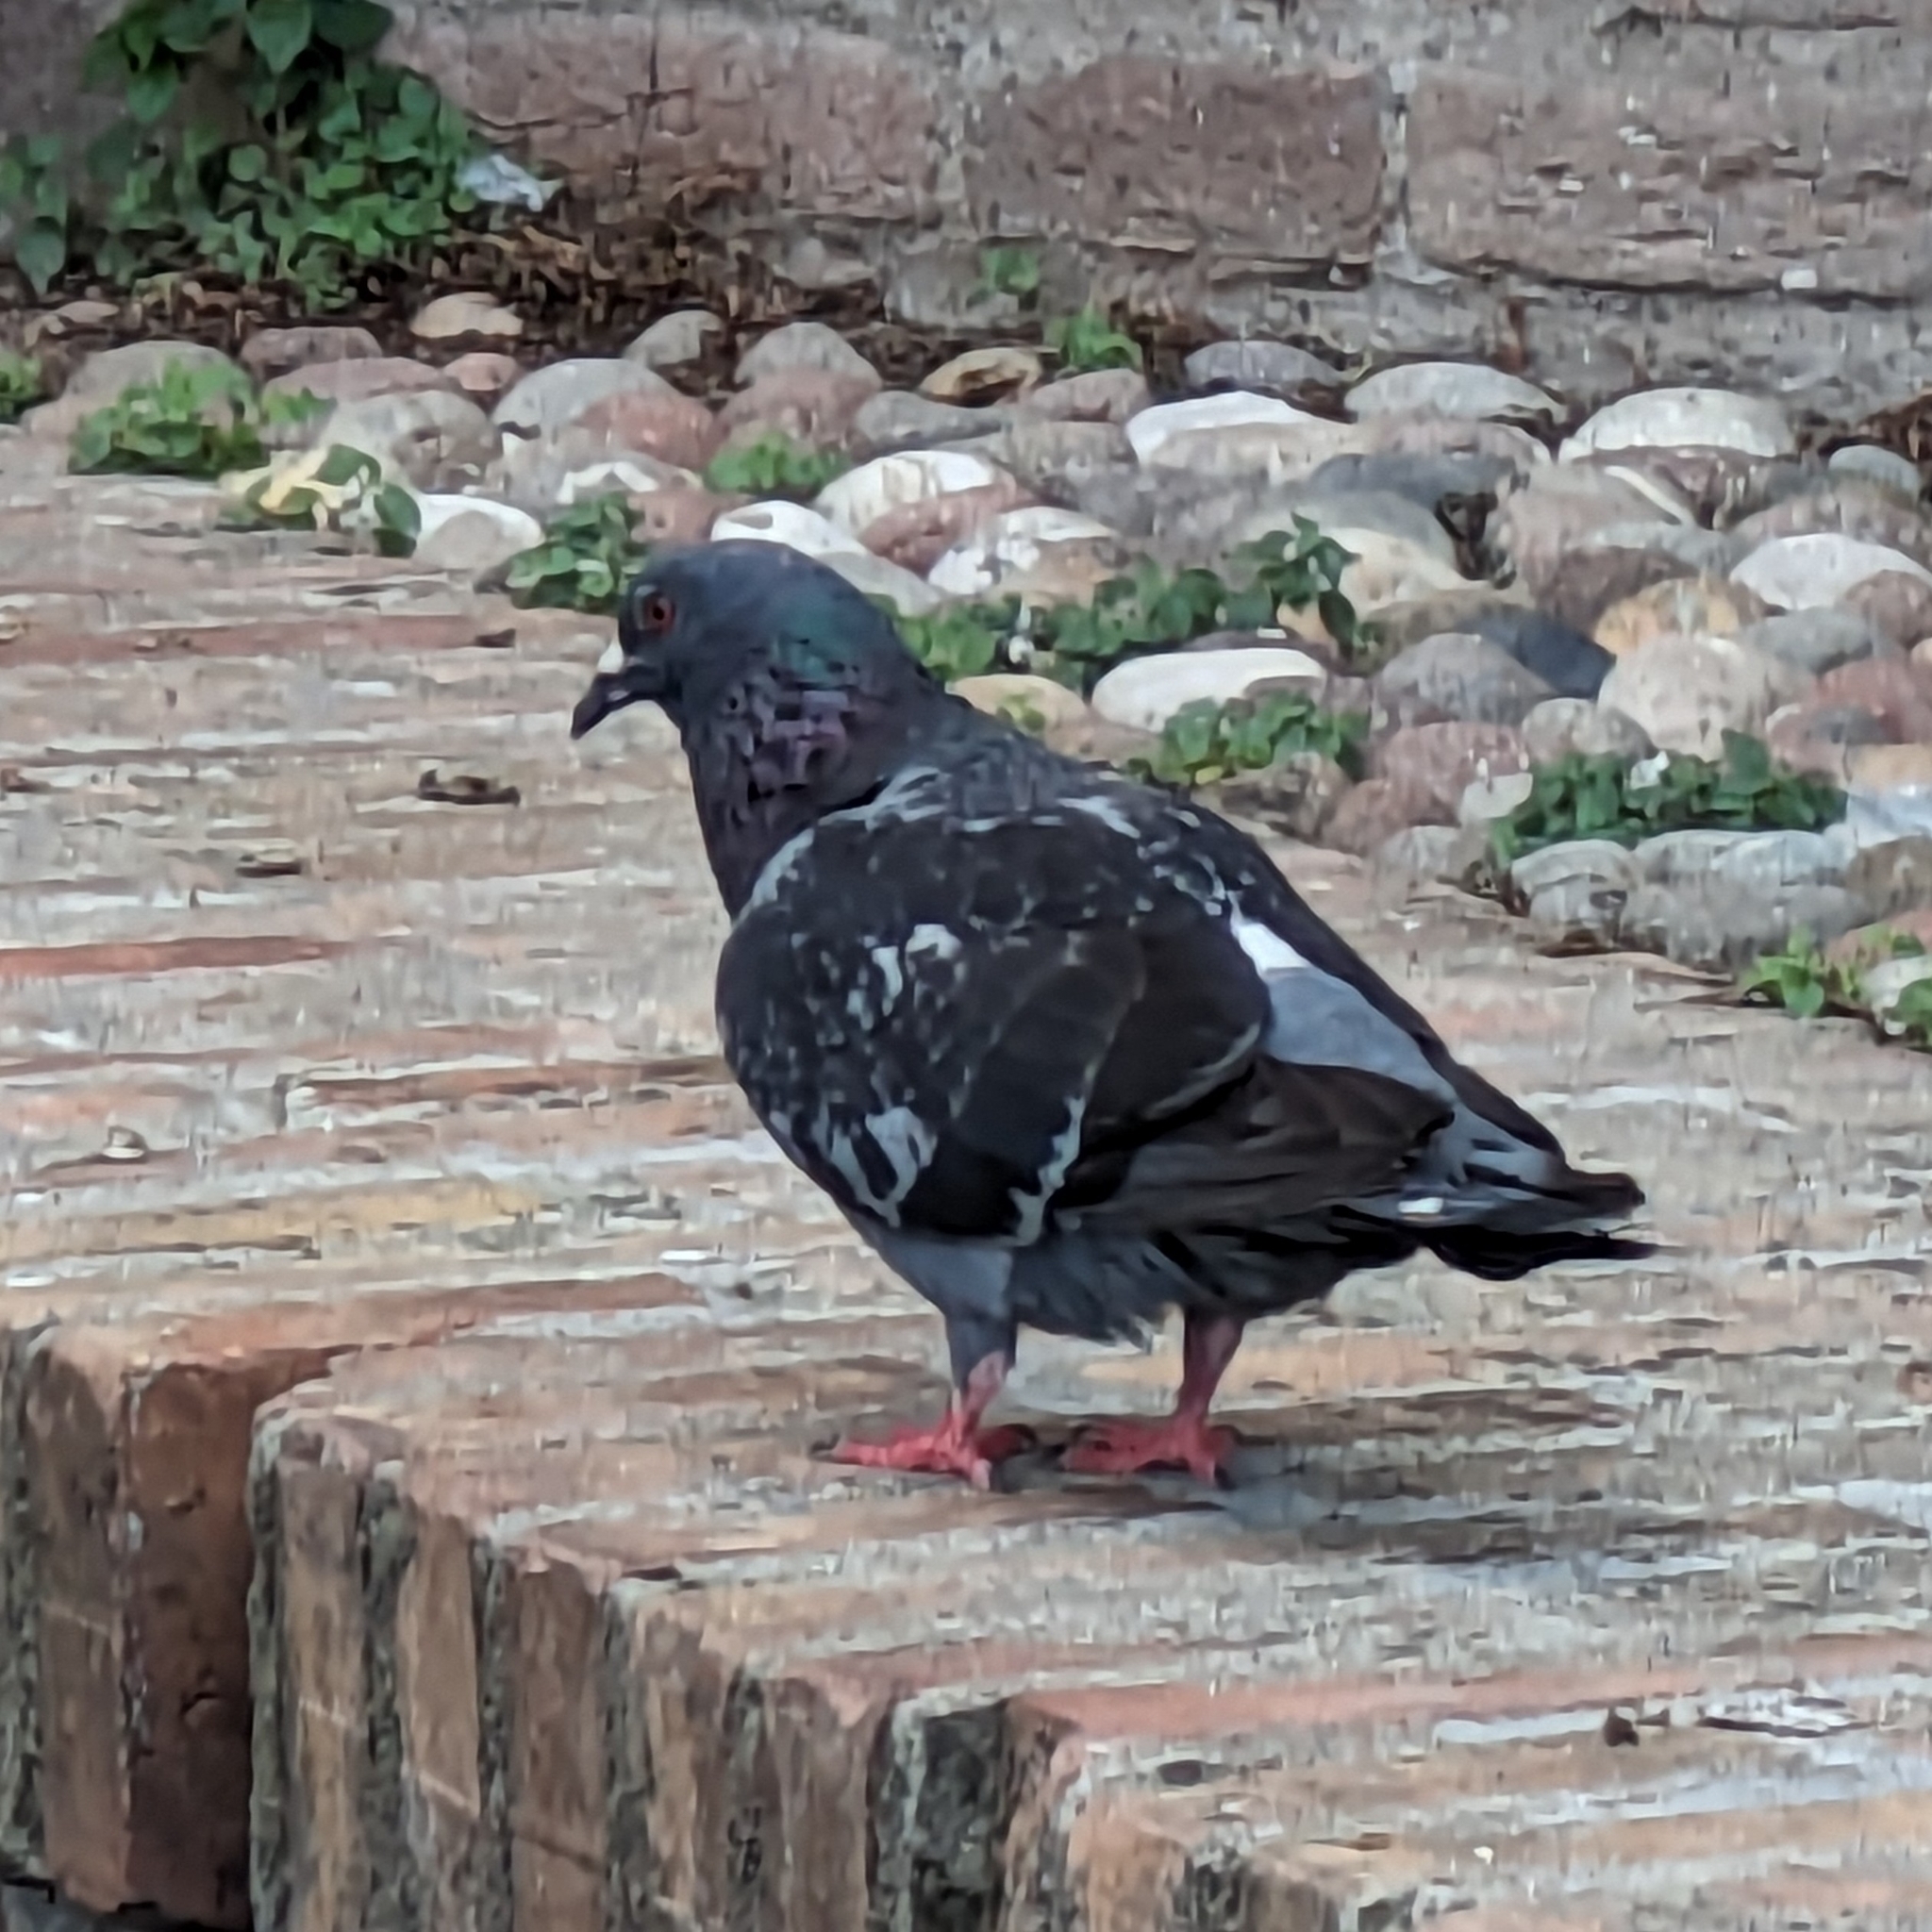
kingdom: Animalia
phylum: Chordata
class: Aves
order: Columbiformes
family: Columbidae
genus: Columba
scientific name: Columba livia
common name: Rock pigeon
